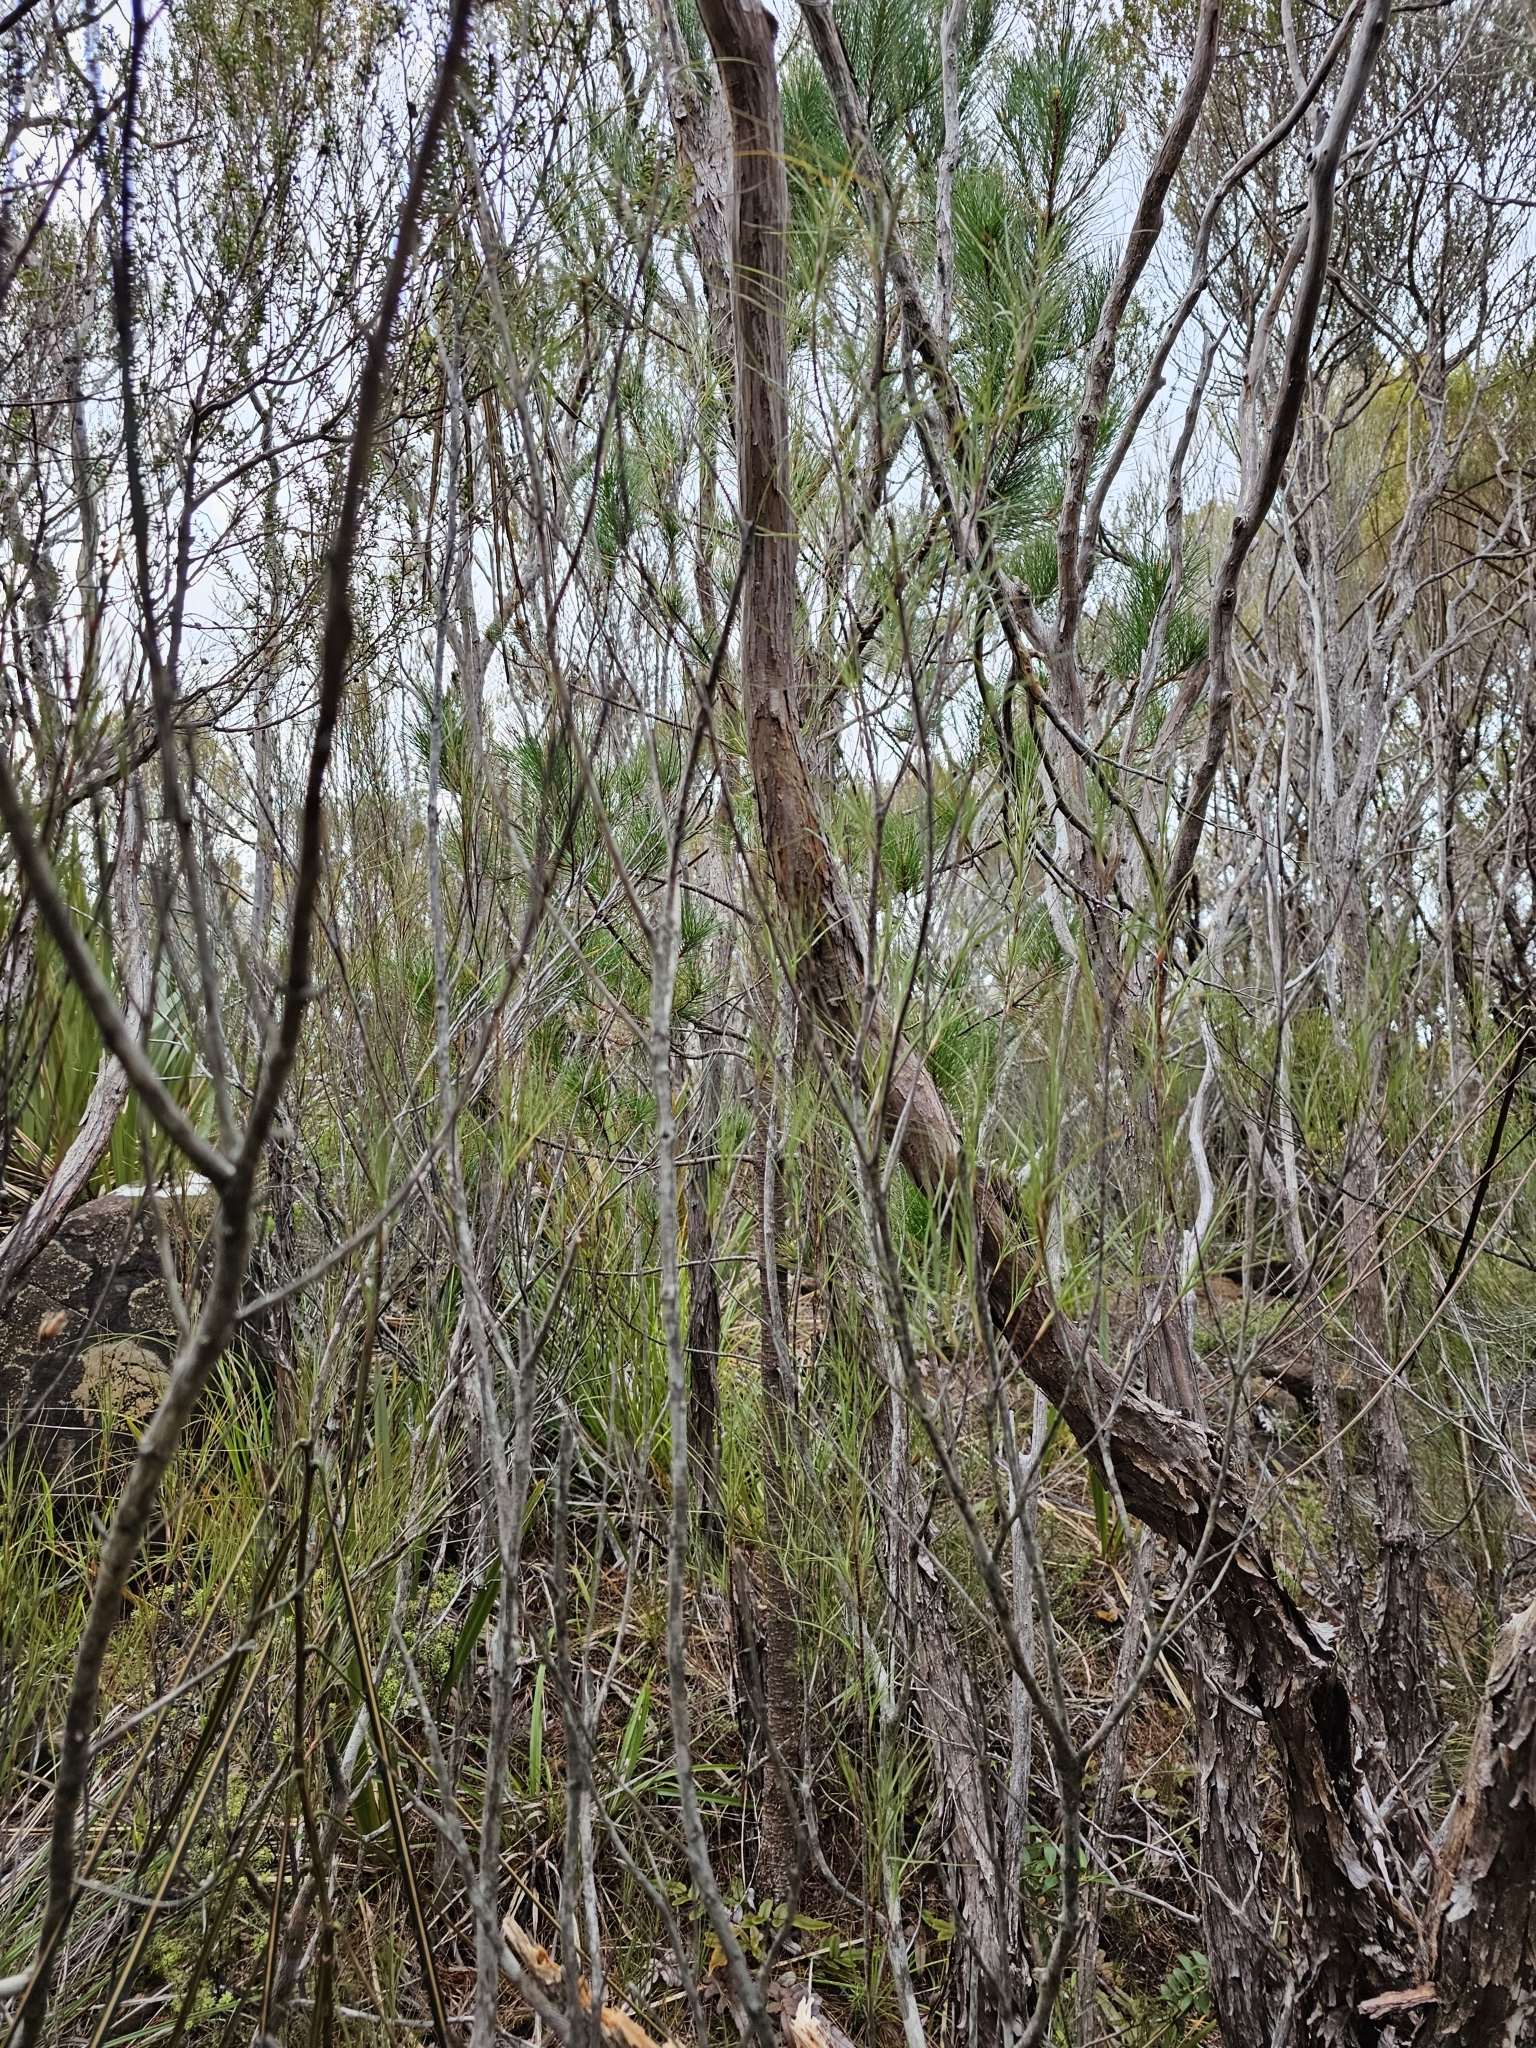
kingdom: Plantae
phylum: Tracheophyta
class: Pinopsida
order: Pinales
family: Pinaceae
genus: Pinus
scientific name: Pinus radiata
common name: Monterey pine
